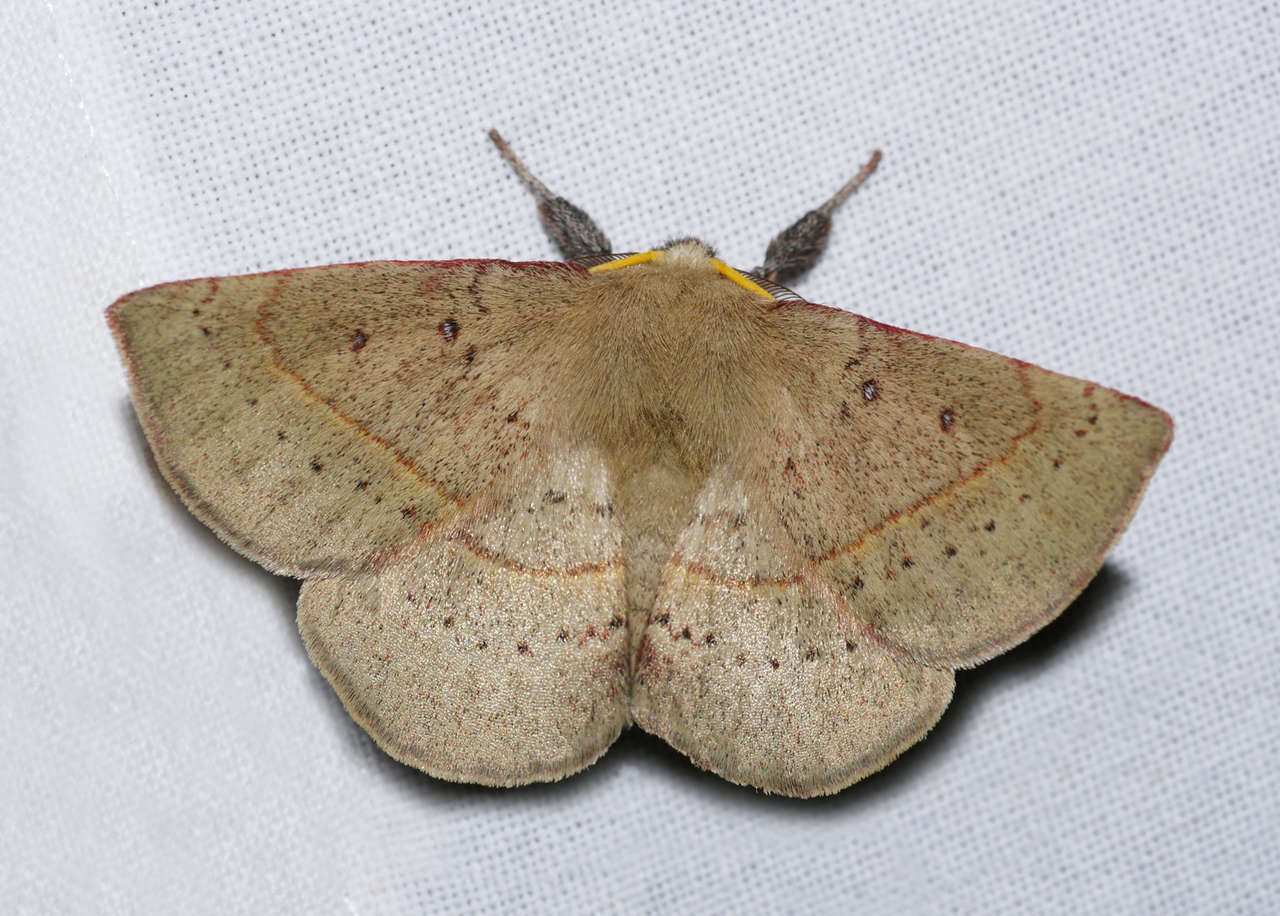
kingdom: Animalia
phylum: Arthropoda
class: Insecta
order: Lepidoptera
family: Anthelidae
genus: Anthela
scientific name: Anthela acuta
